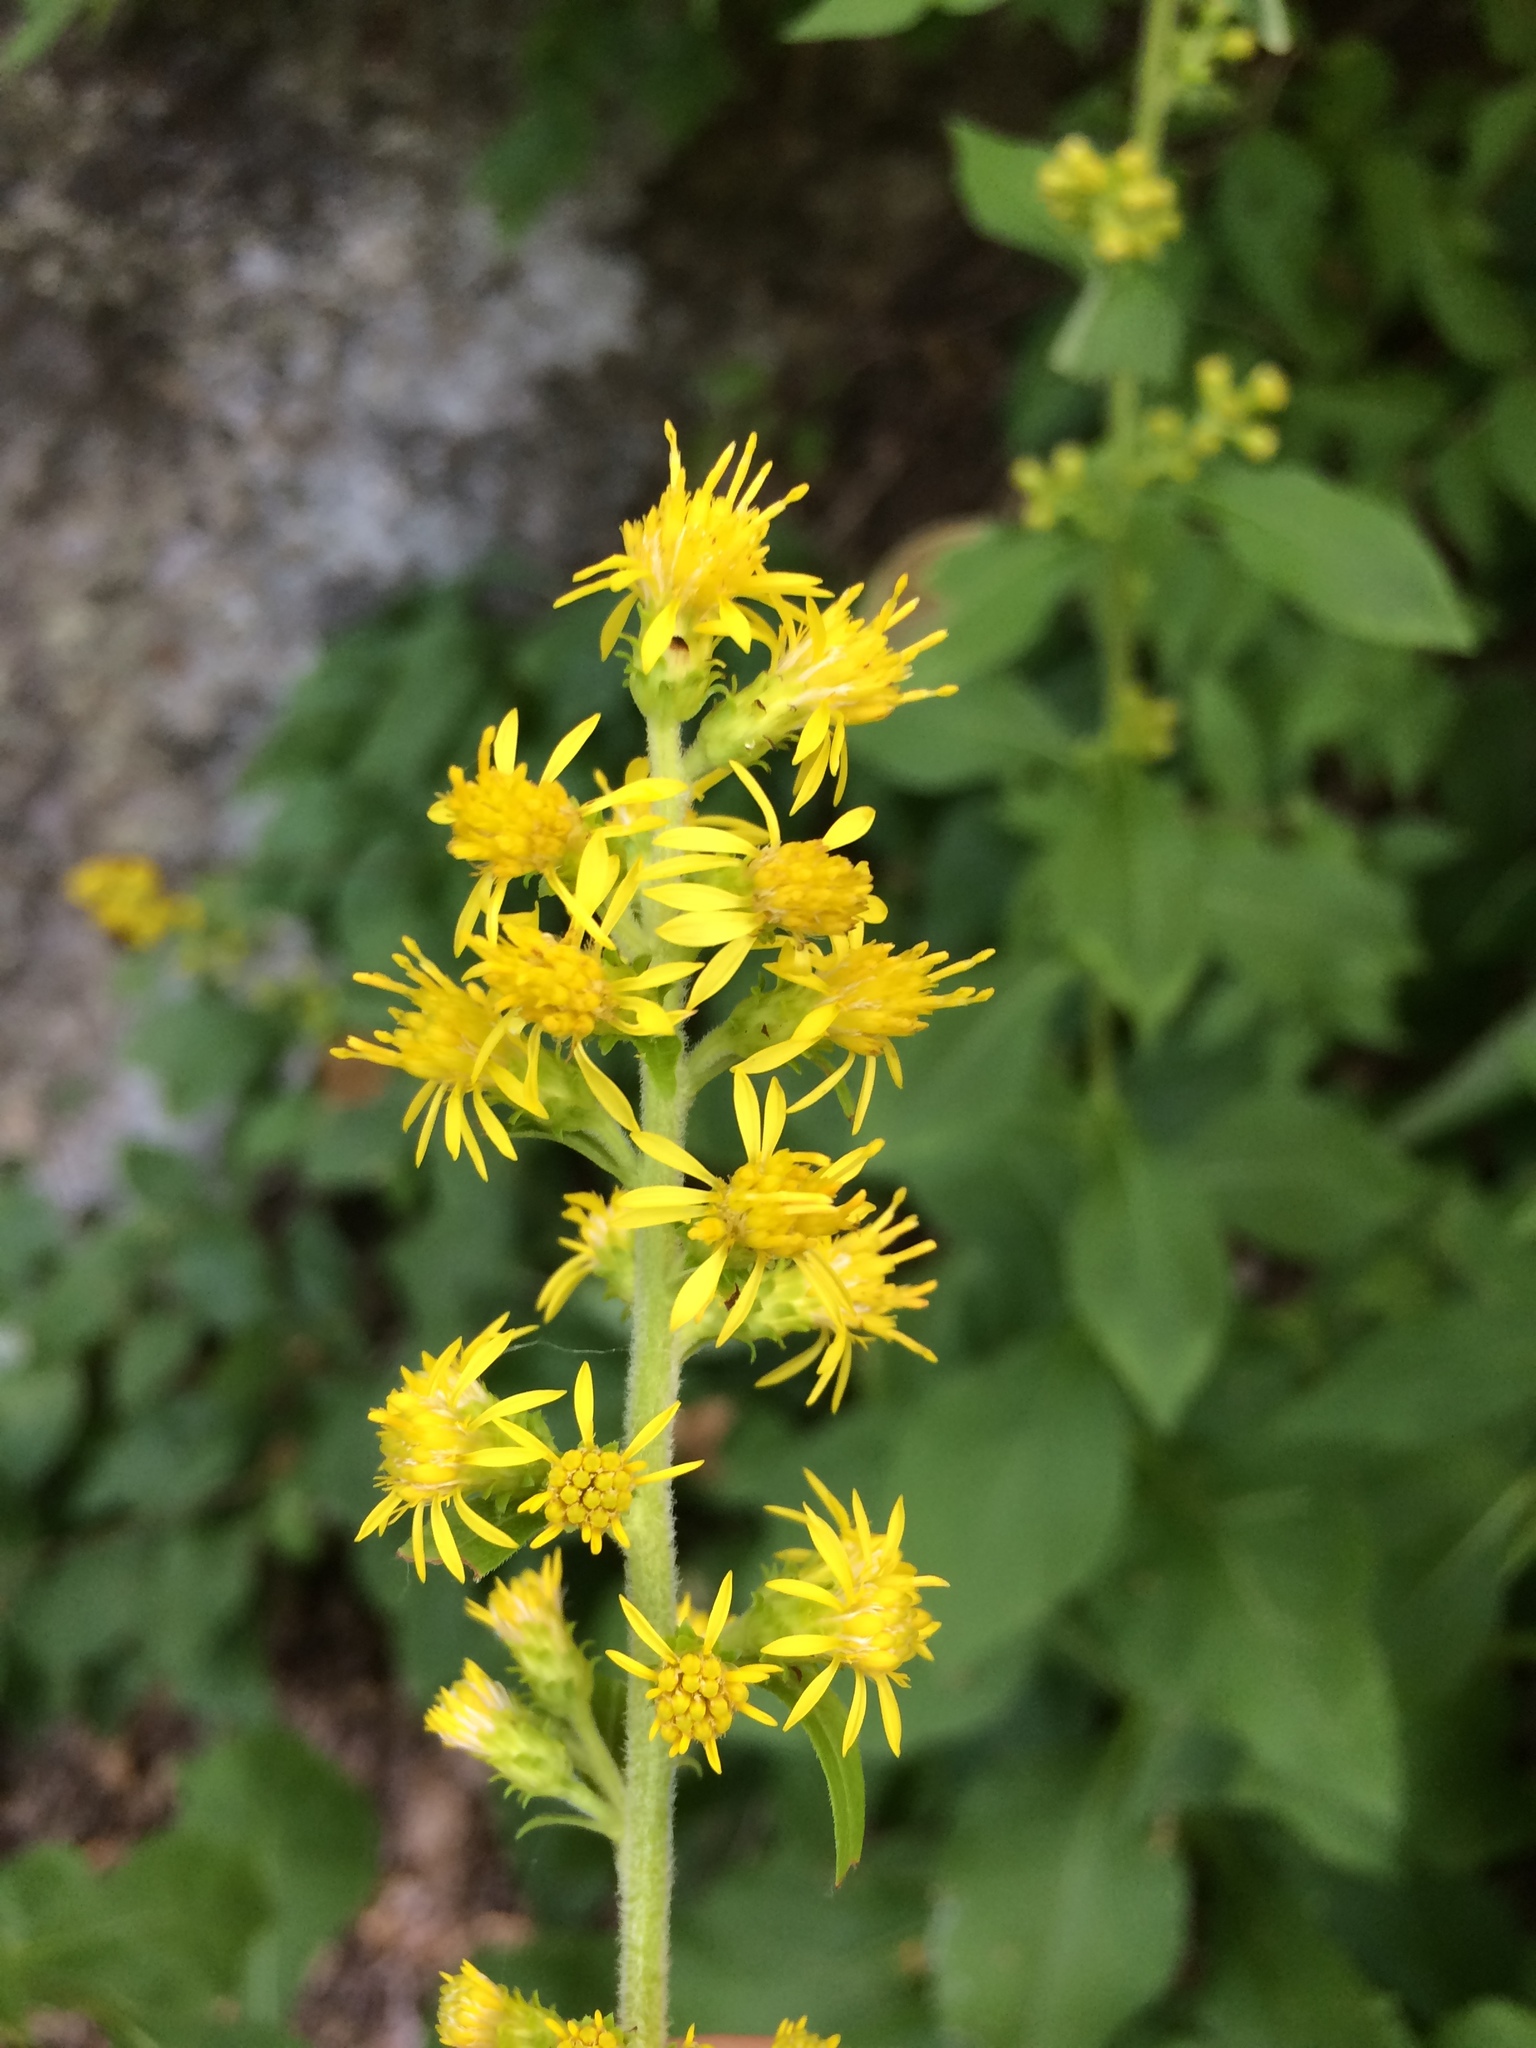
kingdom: Plantae
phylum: Tracheophyta
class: Magnoliopsida
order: Asterales
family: Asteraceae
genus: Solidago
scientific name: Solidago squarrosa
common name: Stout goldenrod
